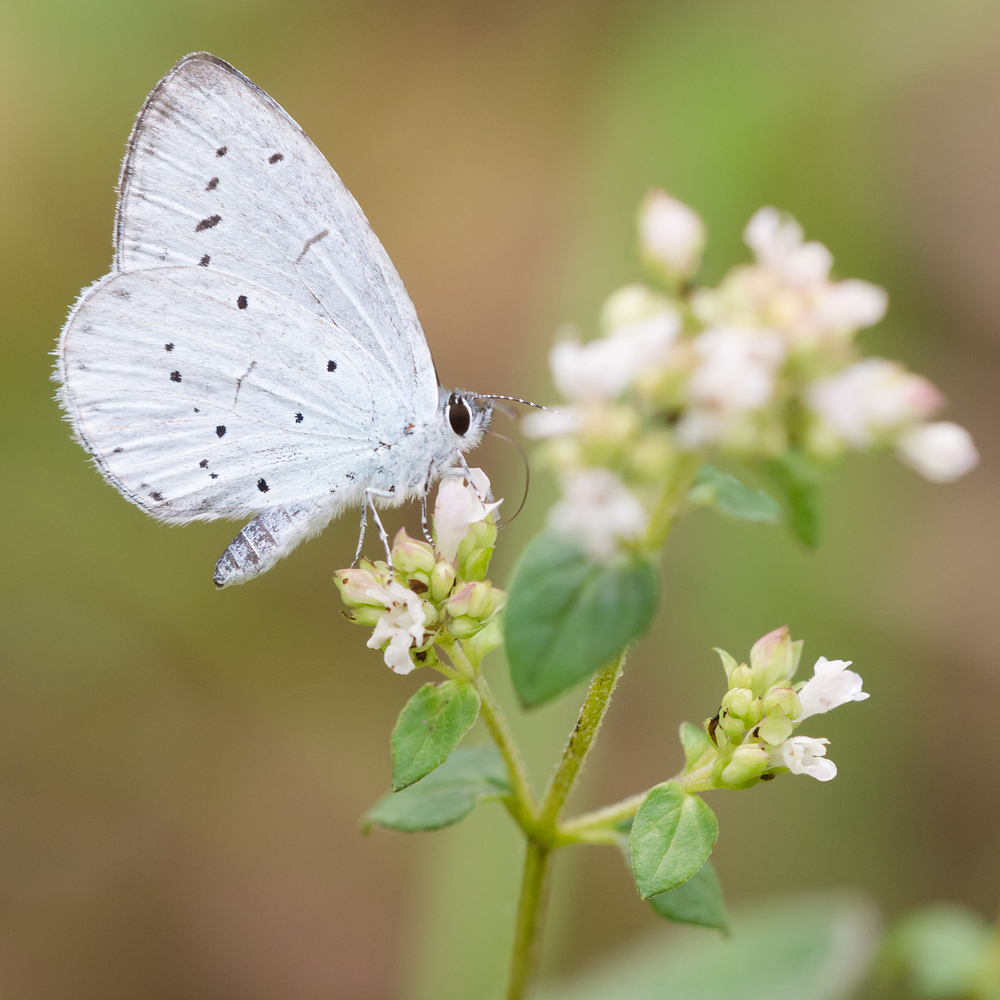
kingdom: Animalia
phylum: Arthropoda
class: Insecta
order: Lepidoptera
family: Lycaenidae
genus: Celastrina
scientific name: Celastrina argiolus
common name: Holly blue
